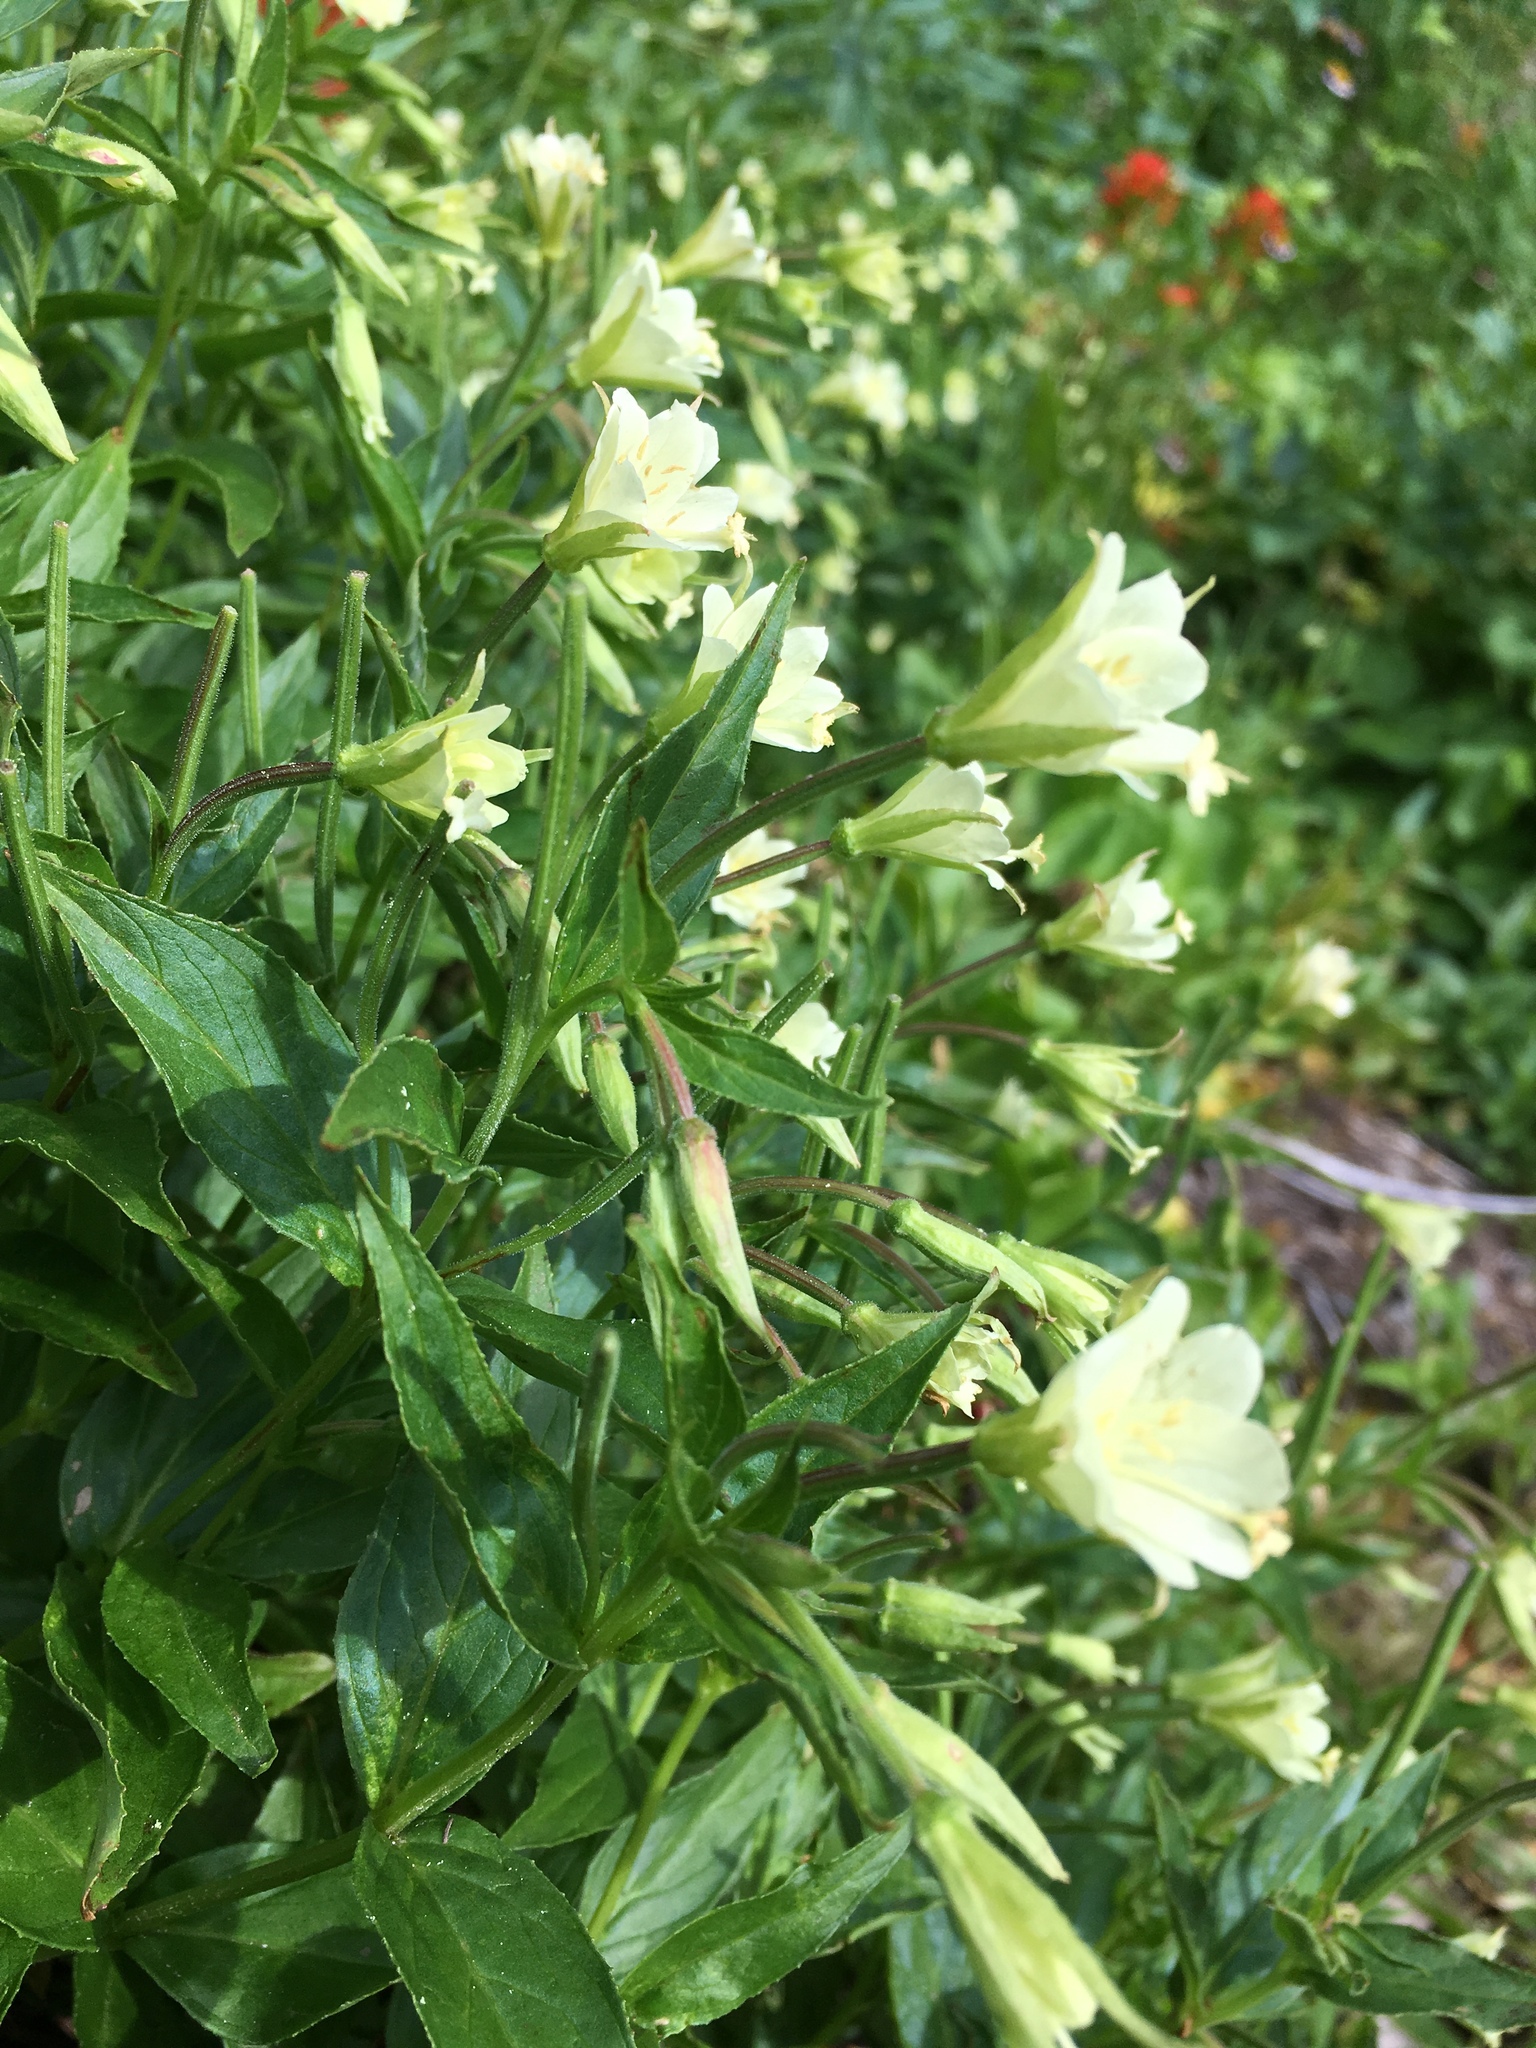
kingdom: Plantae
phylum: Tracheophyta
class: Magnoliopsida
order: Myrtales
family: Onagraceae
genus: Epilobium
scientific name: Epilobium luteum
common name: Yellow willowherb
